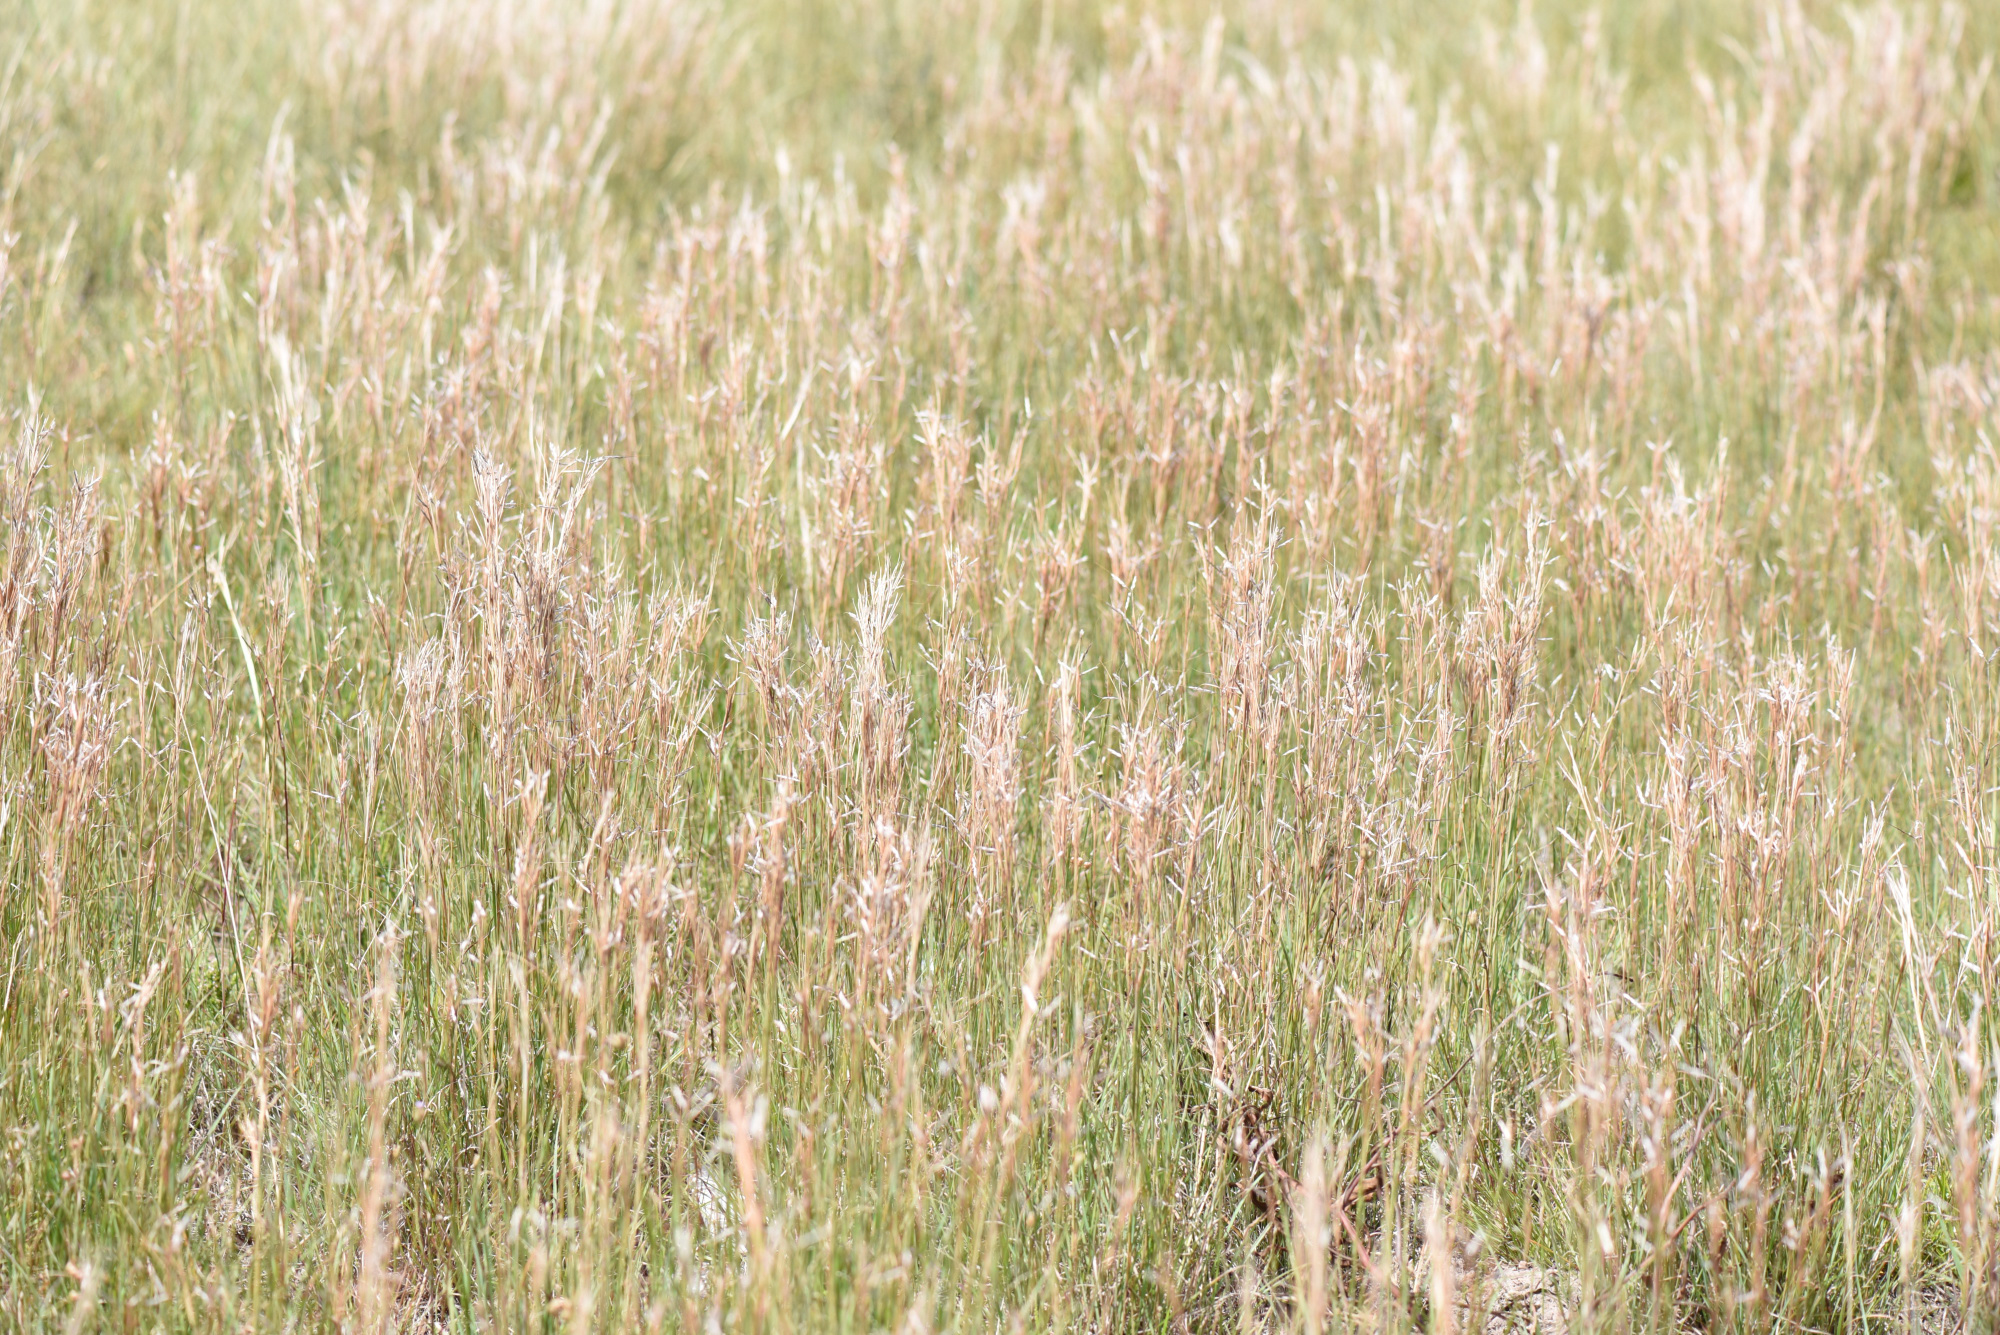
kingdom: Plantae
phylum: Tracheophyta
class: Liliopsida
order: Poales
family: Poaceae
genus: Hyparrhenia
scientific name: Hyparrhenia hirta
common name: Thatching grass
